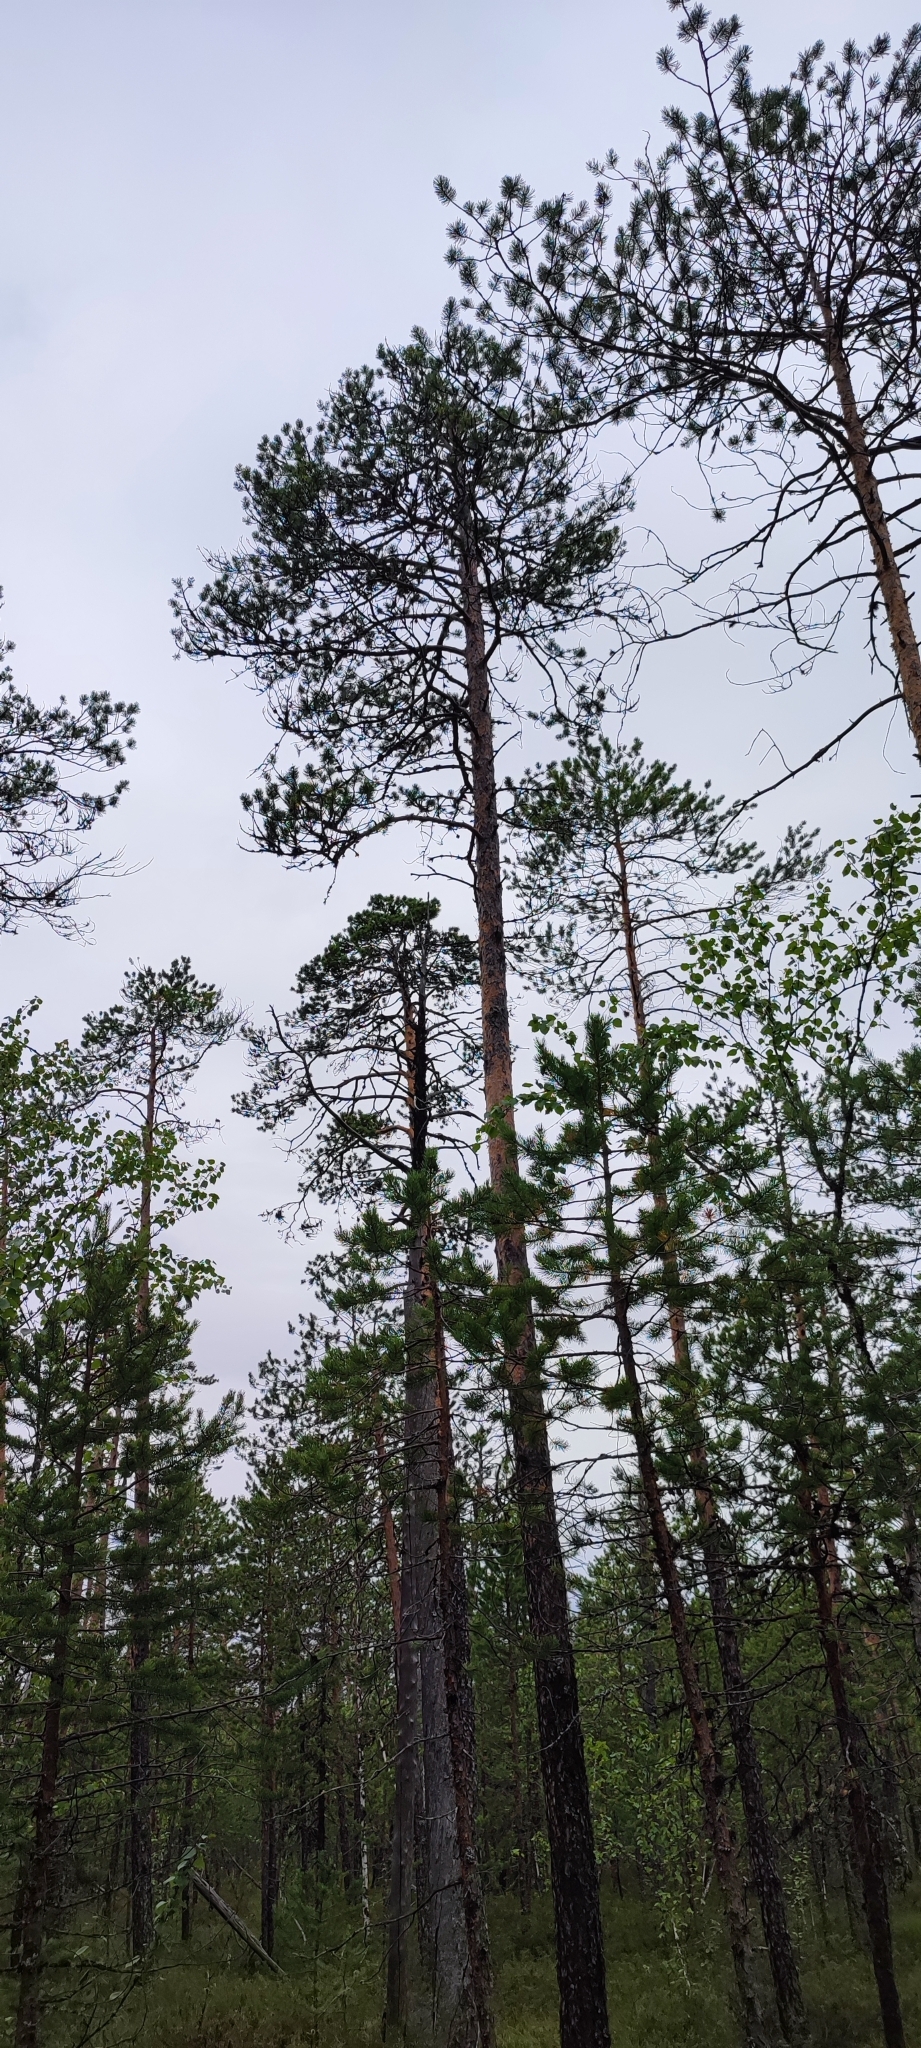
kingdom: Plantae
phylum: Tracheophyta
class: Pinopsida
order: Pinales
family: Pinaceae
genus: Pinus
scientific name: Pinus sylvestris
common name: Scots pine
